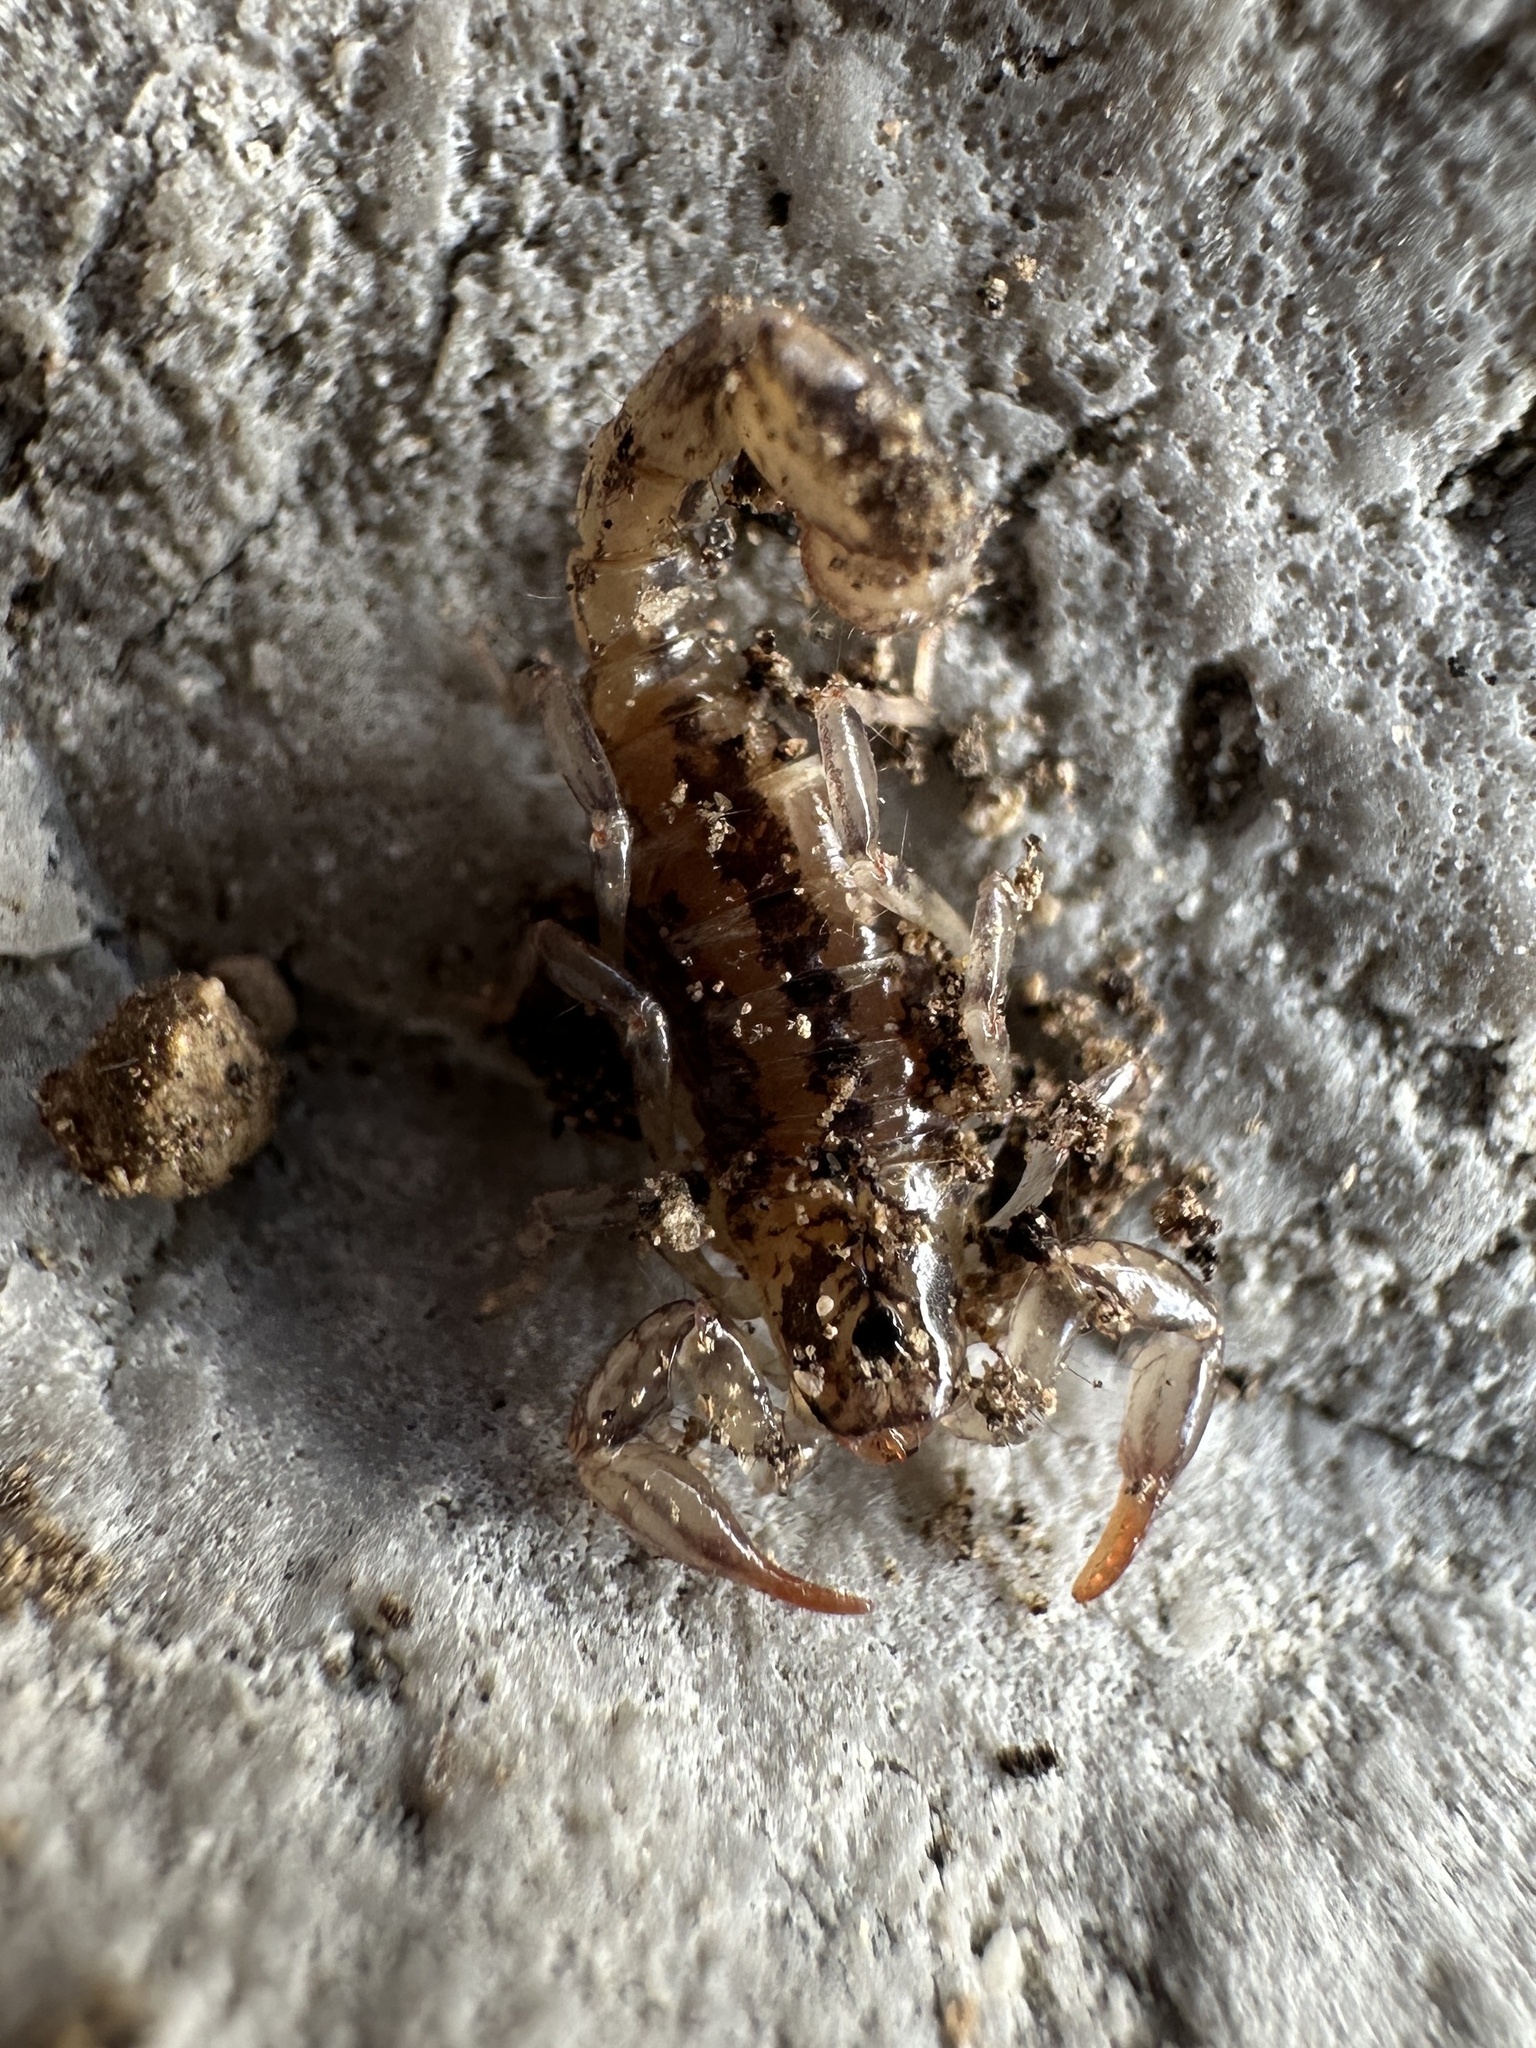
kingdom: Animalia
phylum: Arthropoda
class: Arachnida
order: Scorpiones
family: Superstitioniidae
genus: Superstitionia
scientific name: Superstitionia donensis
